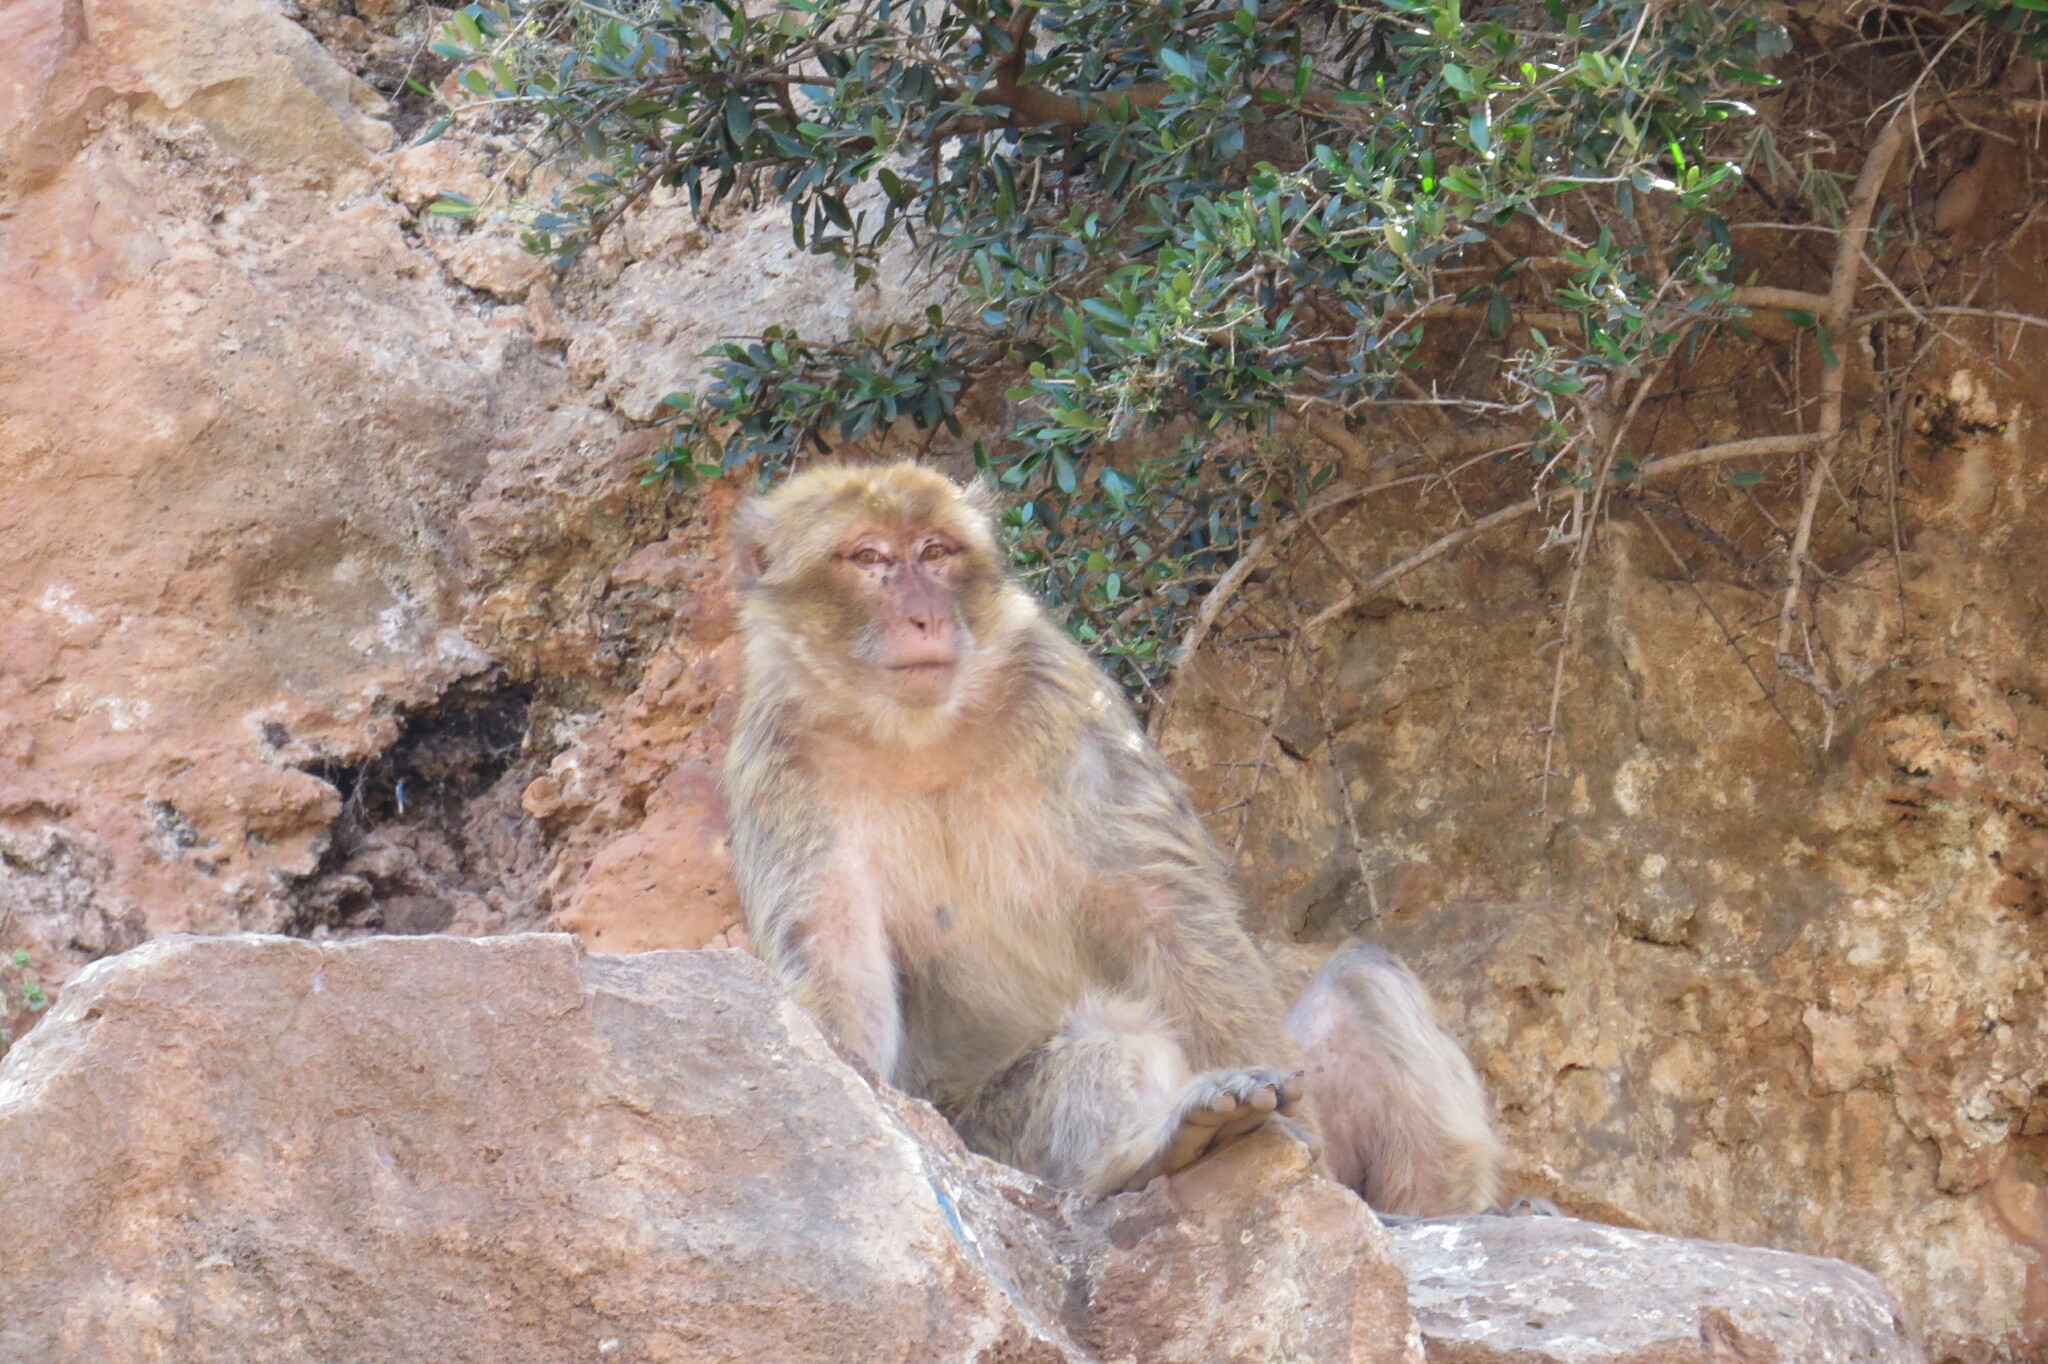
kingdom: Animalia
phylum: Chordata
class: Mammalia
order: Primates
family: Cercopithecidae
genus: Macaca
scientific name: Macaca sylvanus
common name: Barbary macaque
